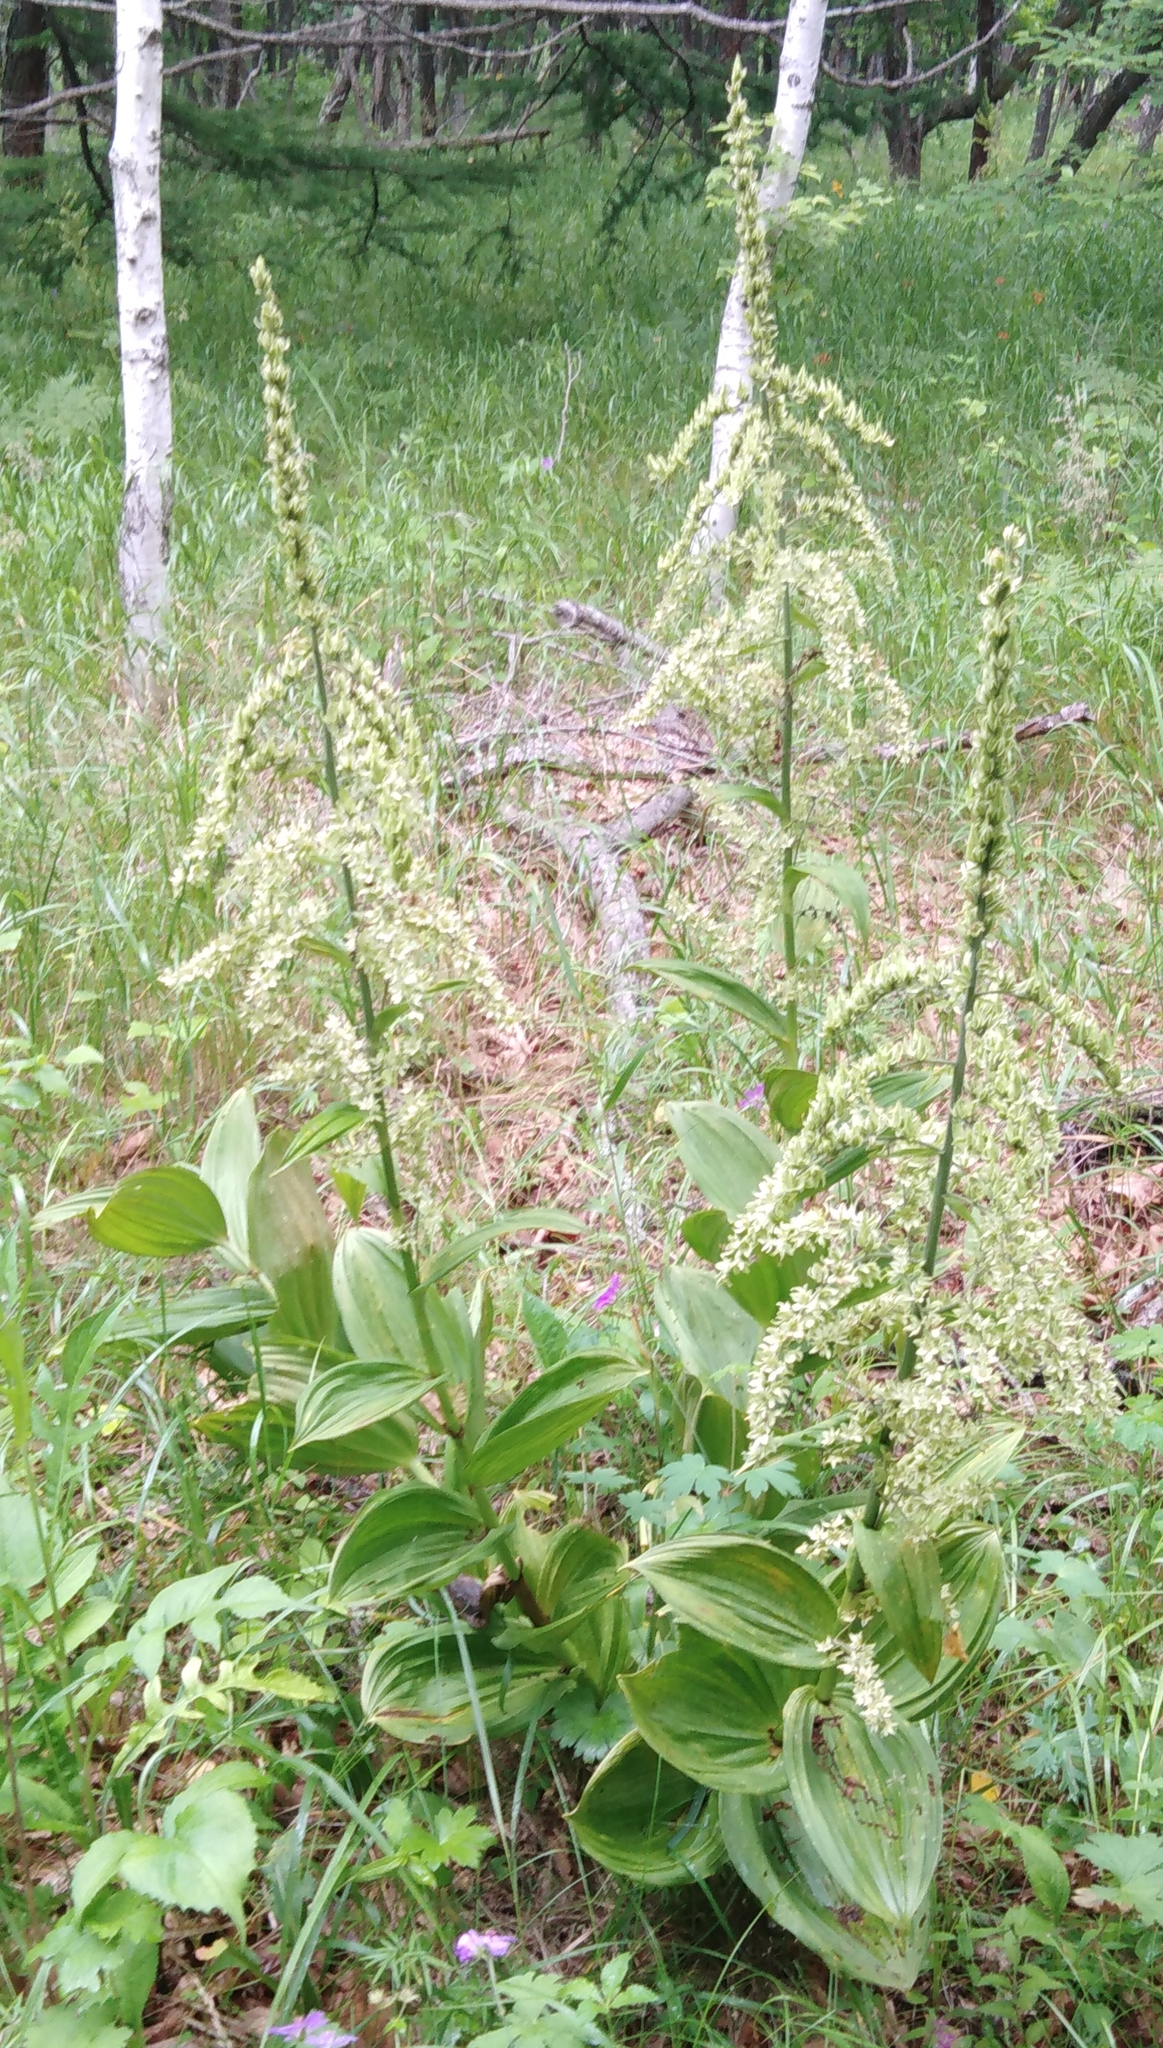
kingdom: Plantae
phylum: Tracheophyta
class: Liliopsida
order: Liliales
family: Melanthiaceae
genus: Veratrum
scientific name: Veratrum dahuricum
